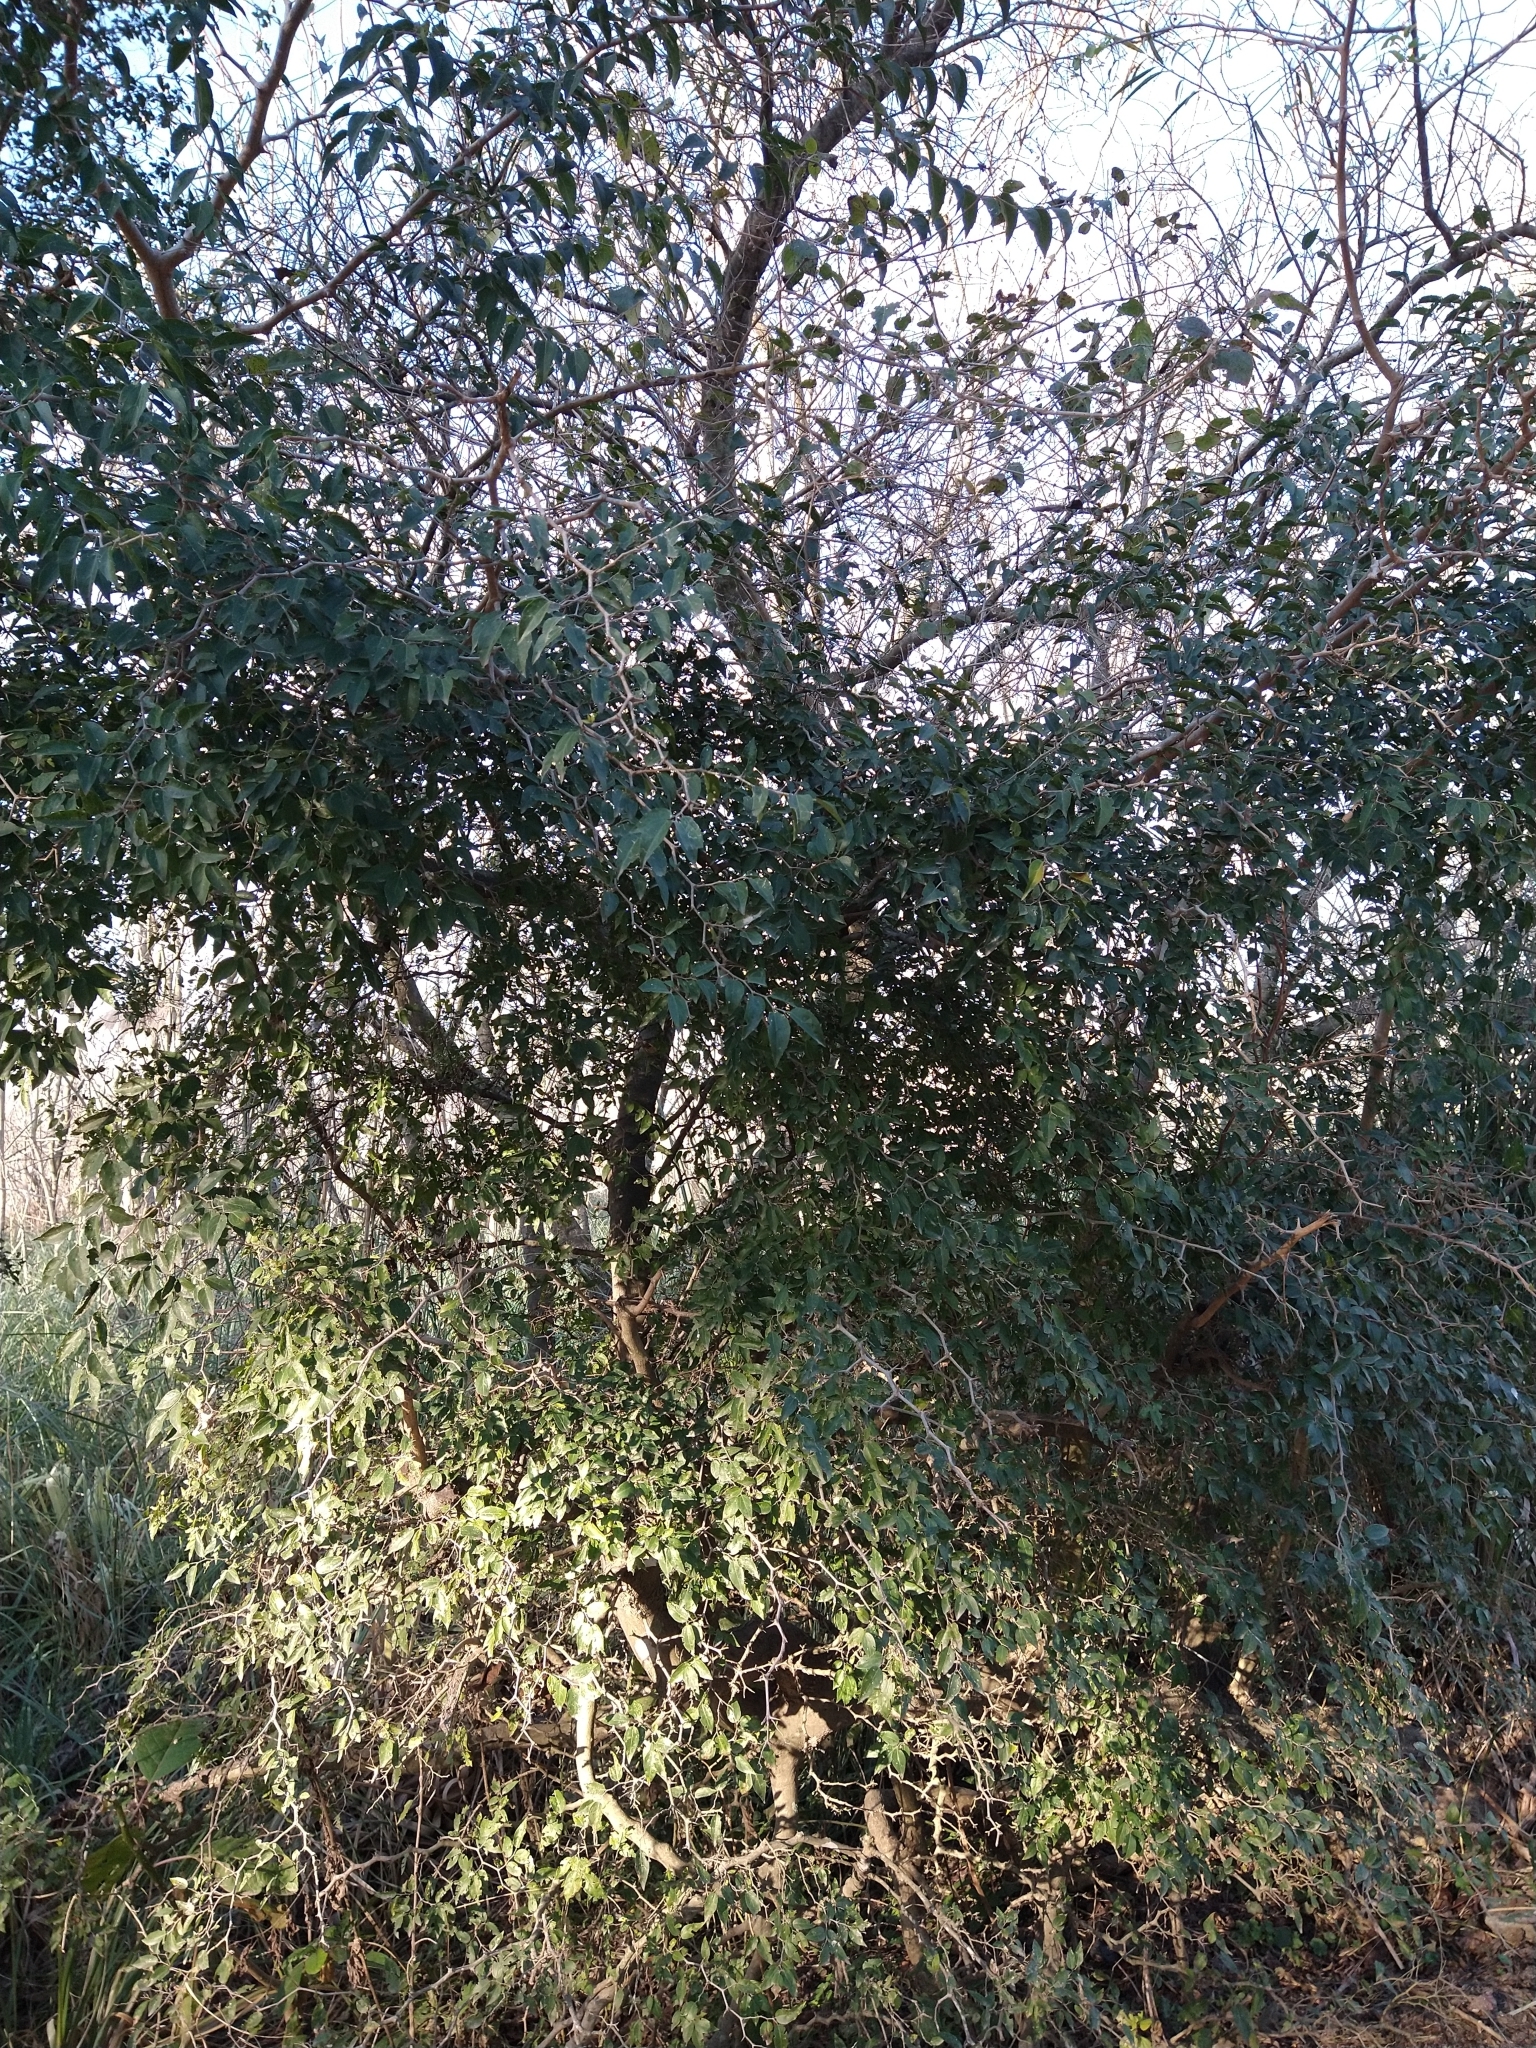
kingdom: Plantae
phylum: Tracheophyta
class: Magnoliopsida
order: Rosales
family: Cannabaceae
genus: Celtis
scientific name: Celtis tala
